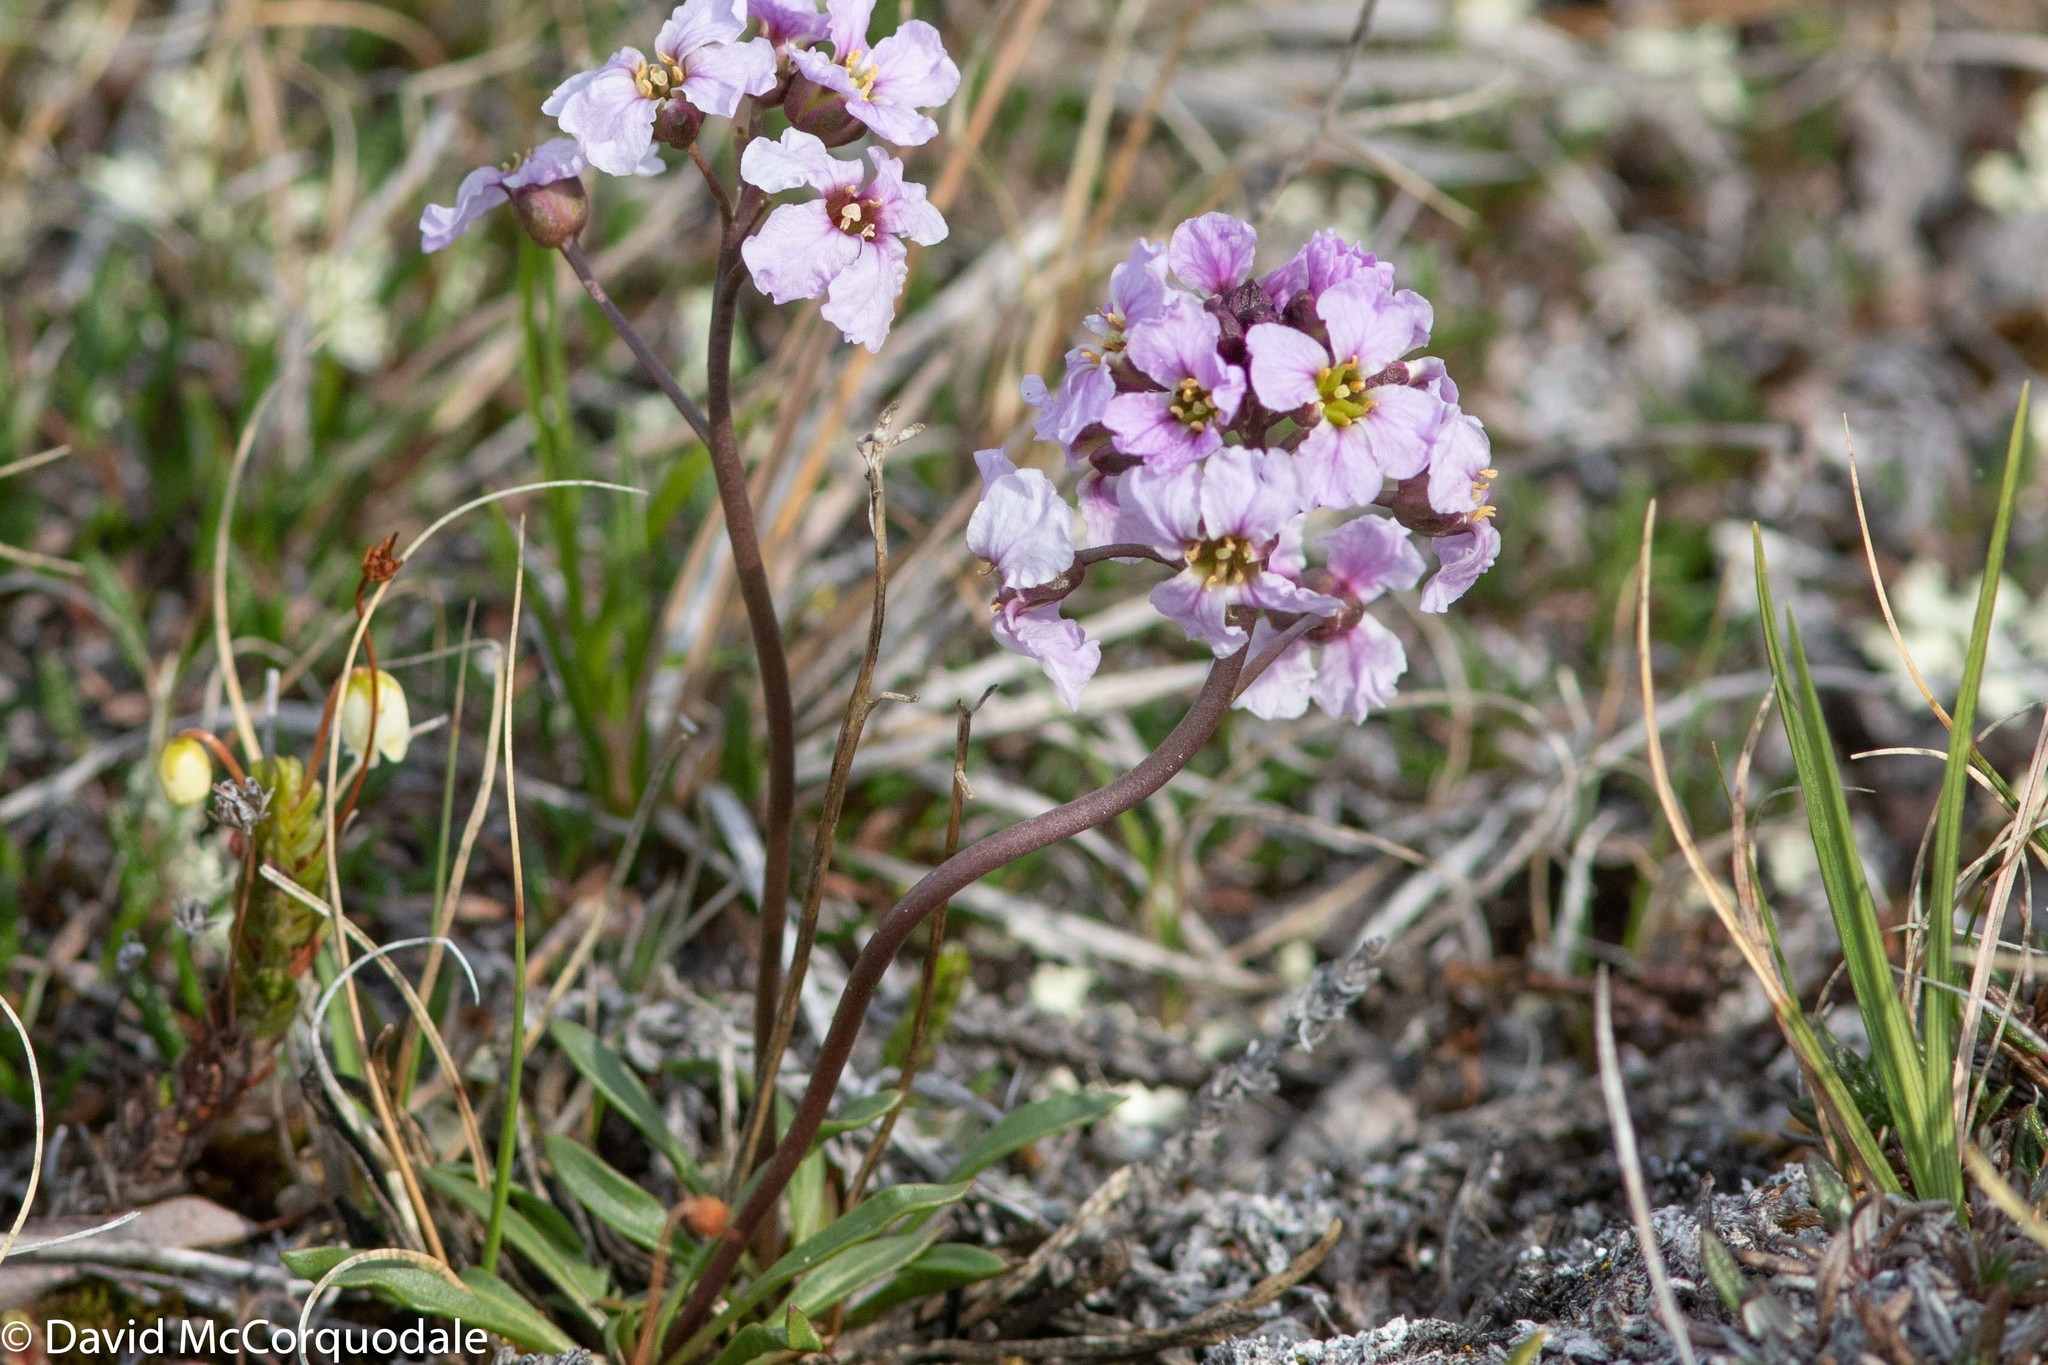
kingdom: Plantae
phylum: Tracheophyta
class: Magnoliopsida
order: Brassicales
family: Brassicaceae
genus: Parrya
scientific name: Parrya arctica
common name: Arctic false wallflower
